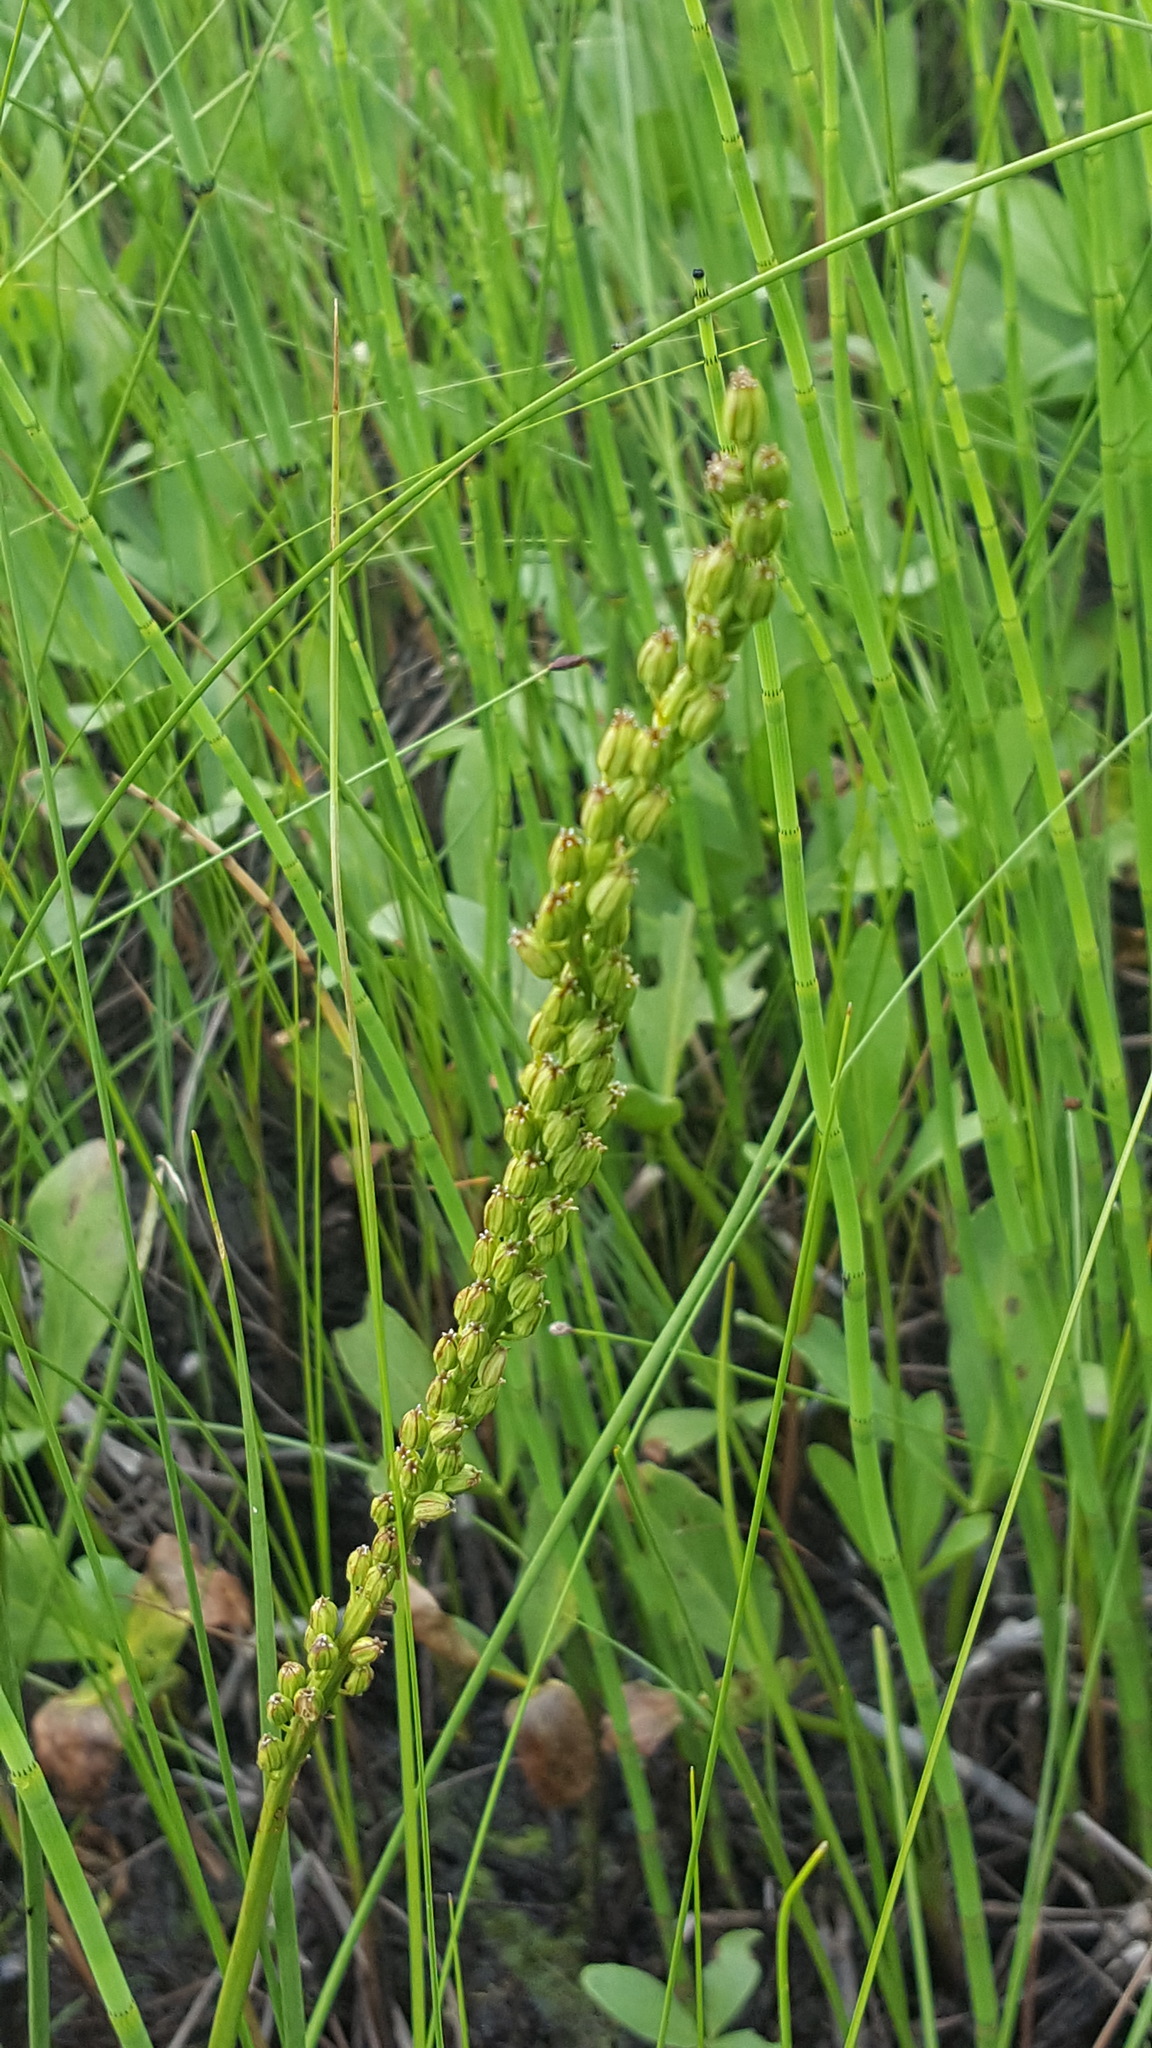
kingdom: Plantae
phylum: Tracheophyta
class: Liliopsida
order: Alismatales
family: Juncaginaceae
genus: Triglochin
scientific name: Triglochin maritima
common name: Sea arrowgrass
